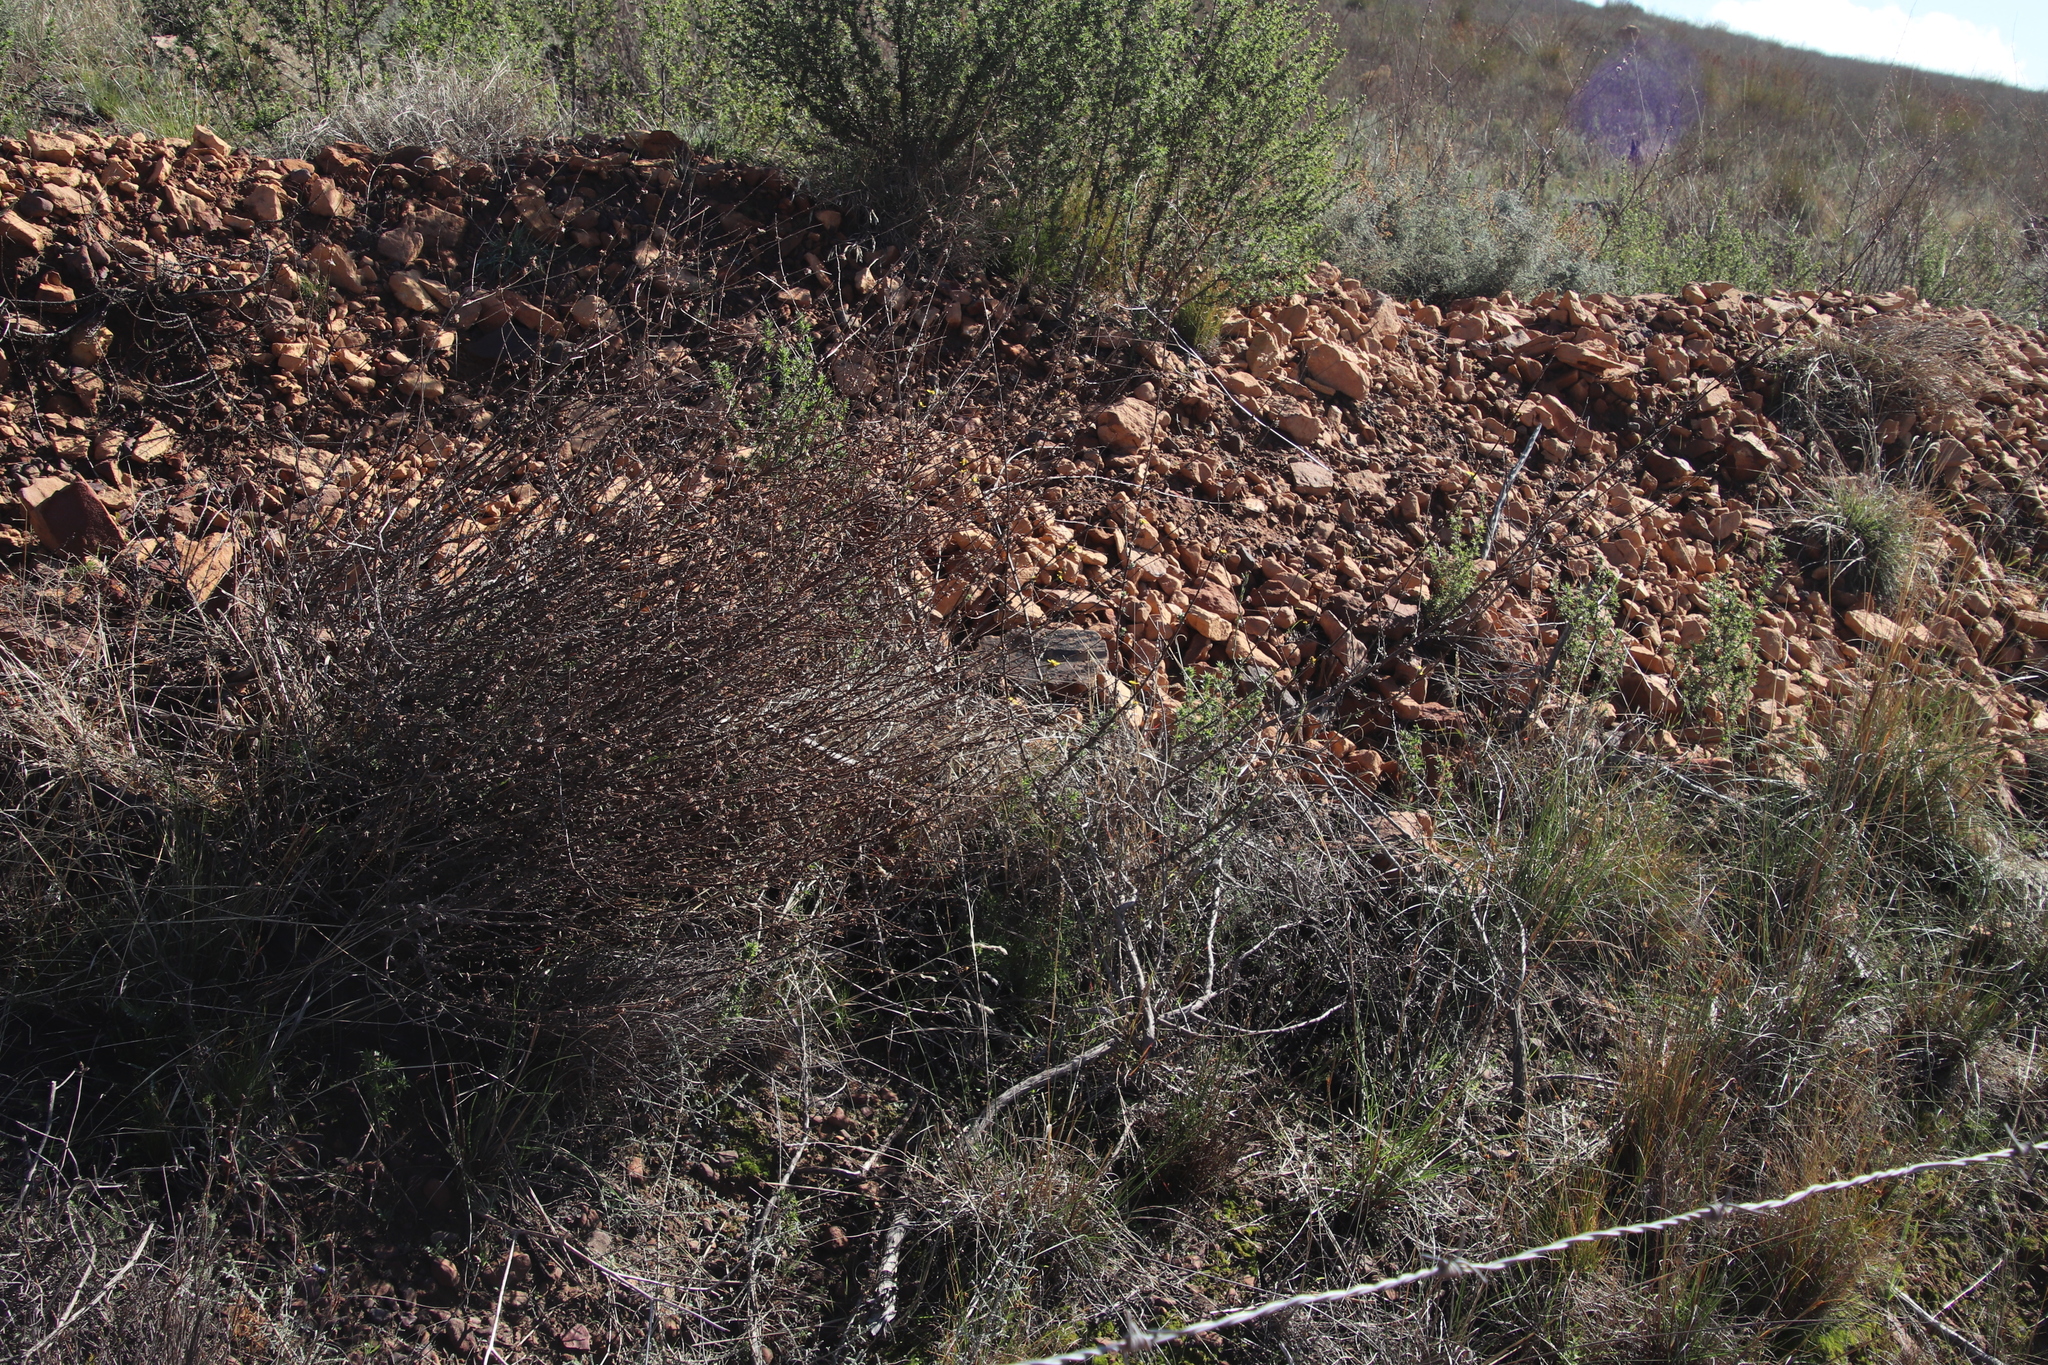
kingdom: Plantae
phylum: Tracheophyta
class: Magnoliopsida
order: Asterales
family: Asteraceae
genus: Senecio
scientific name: Senecio pubigerus
